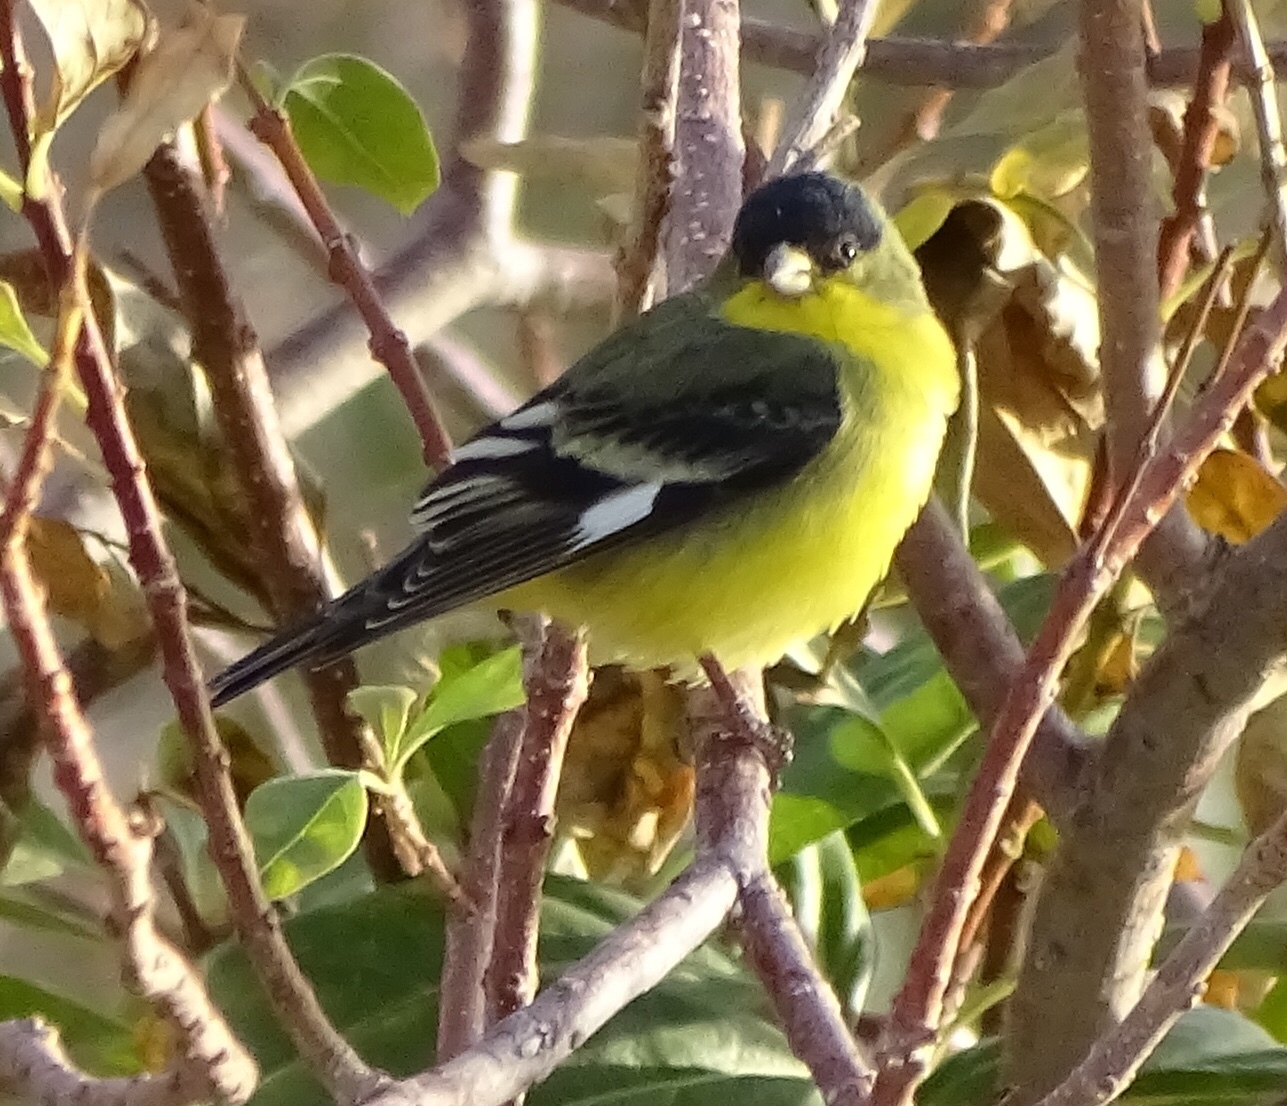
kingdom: Animalia
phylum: Chordata
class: Aves
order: Passeriformes
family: Fringillidae
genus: Spinus
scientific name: Spinus psaltria
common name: Lesser goldfinch
